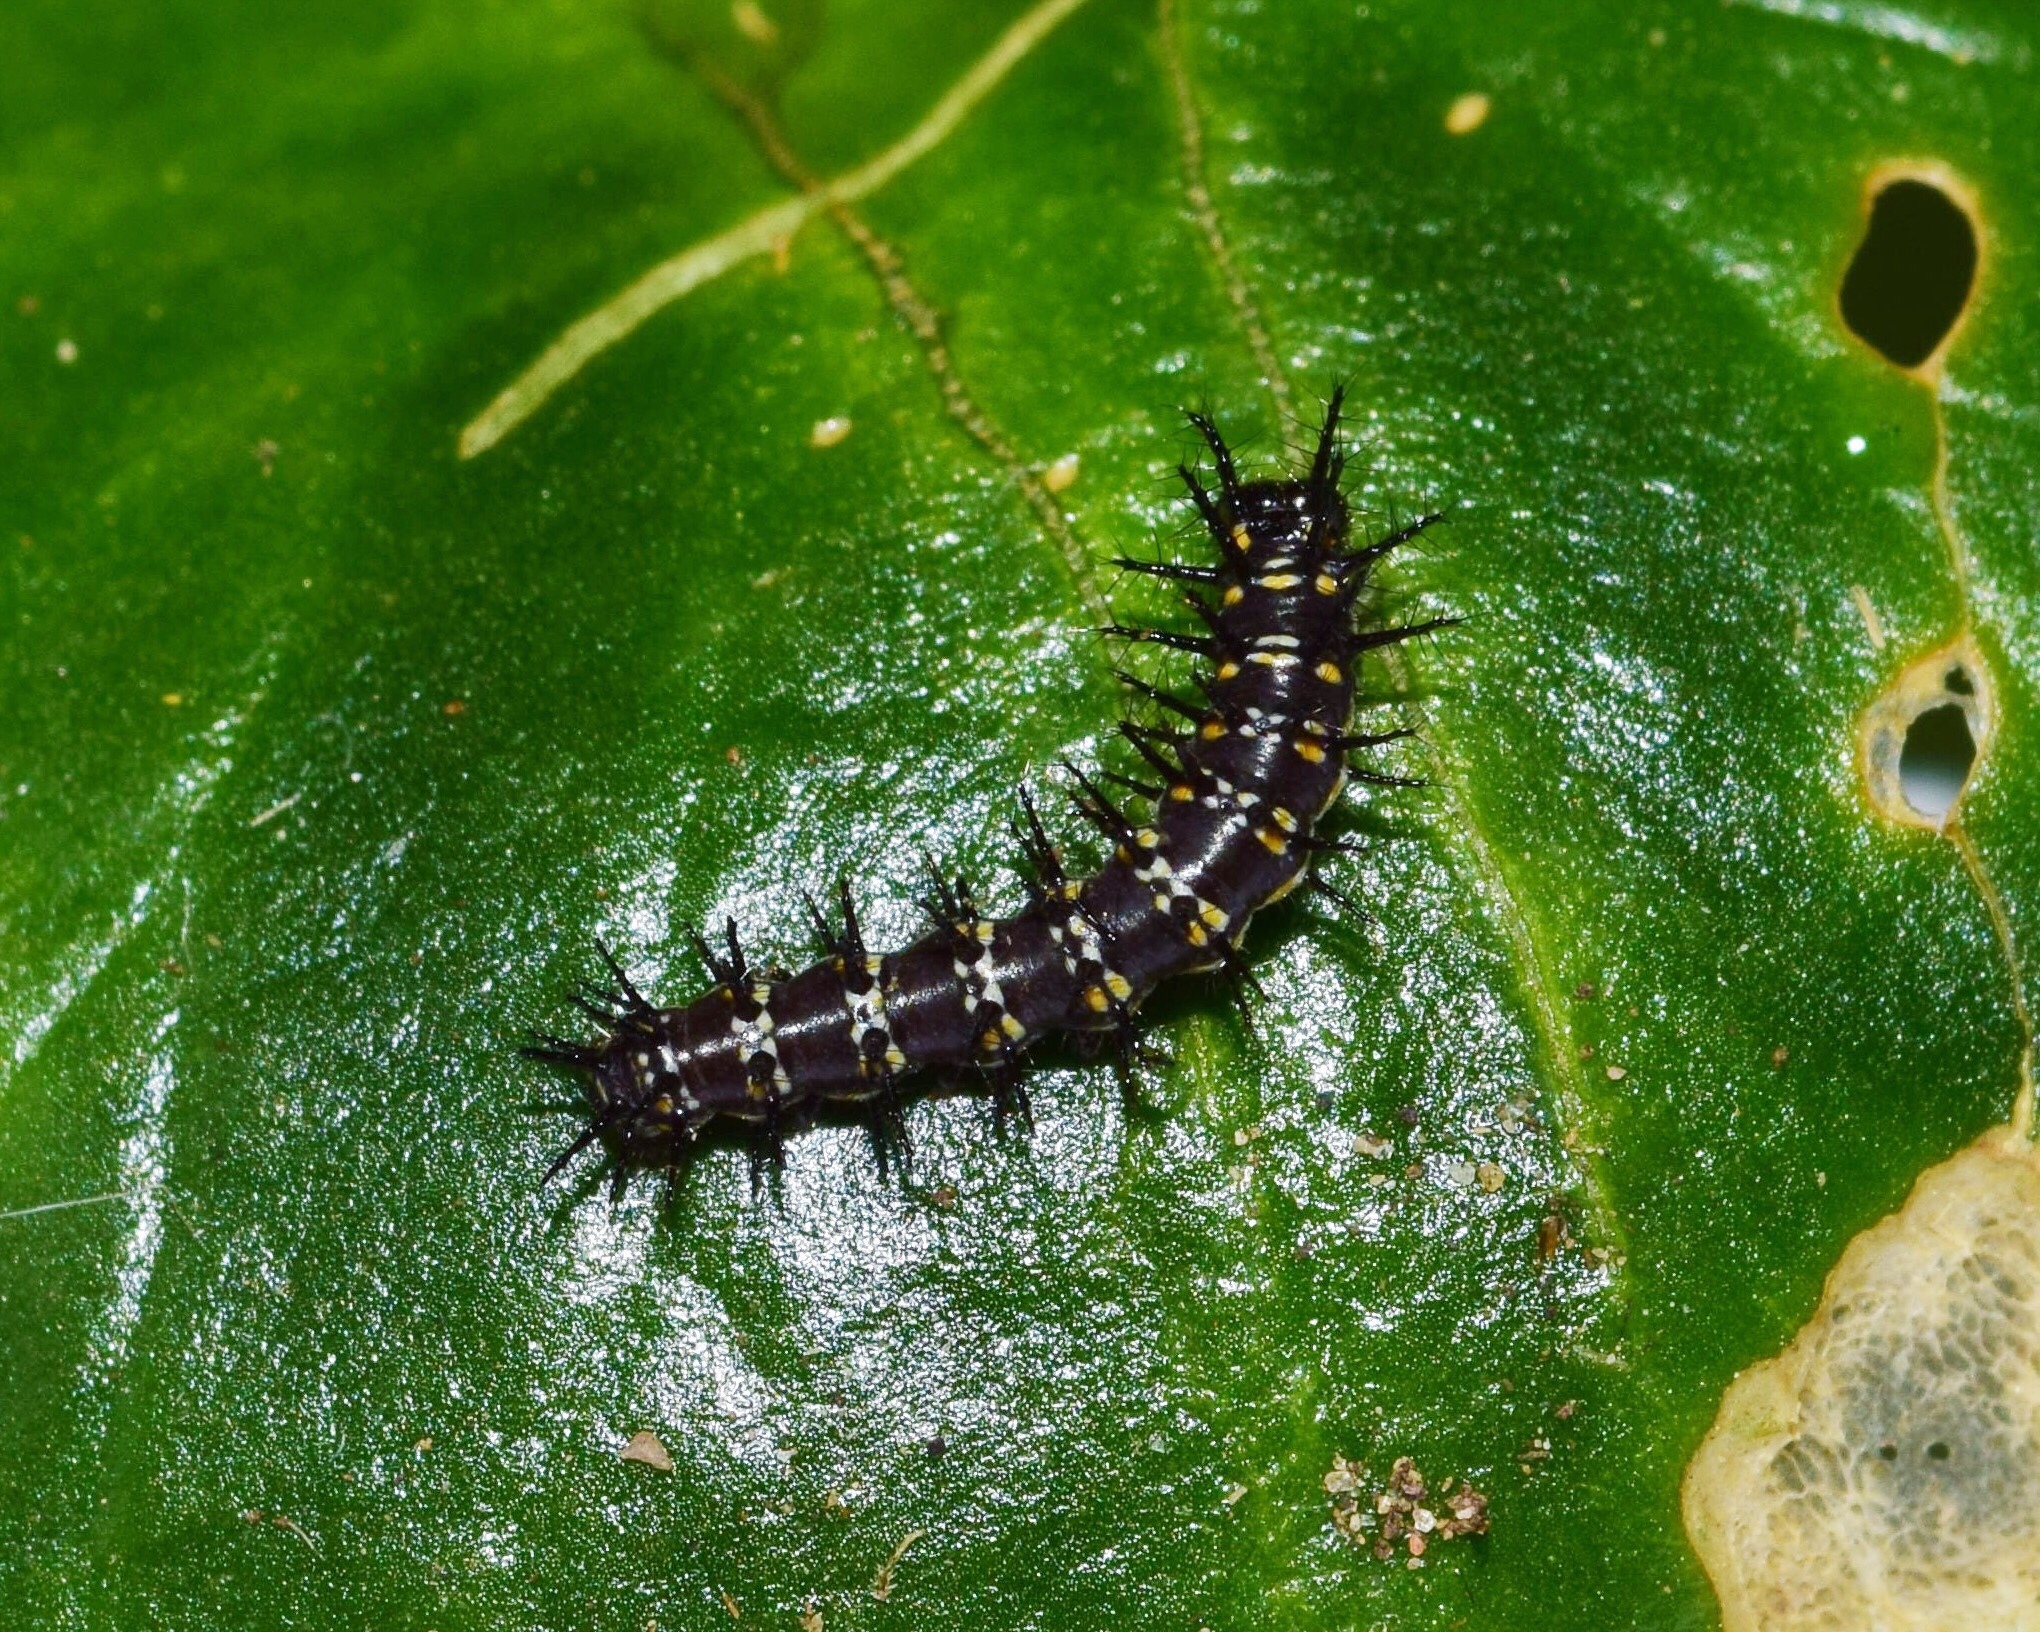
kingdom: Animalia
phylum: Arthropoda
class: Insecta
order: Lepidoptera
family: Nymphalidae
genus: Acraea
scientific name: Acraea Telchinia encedon
